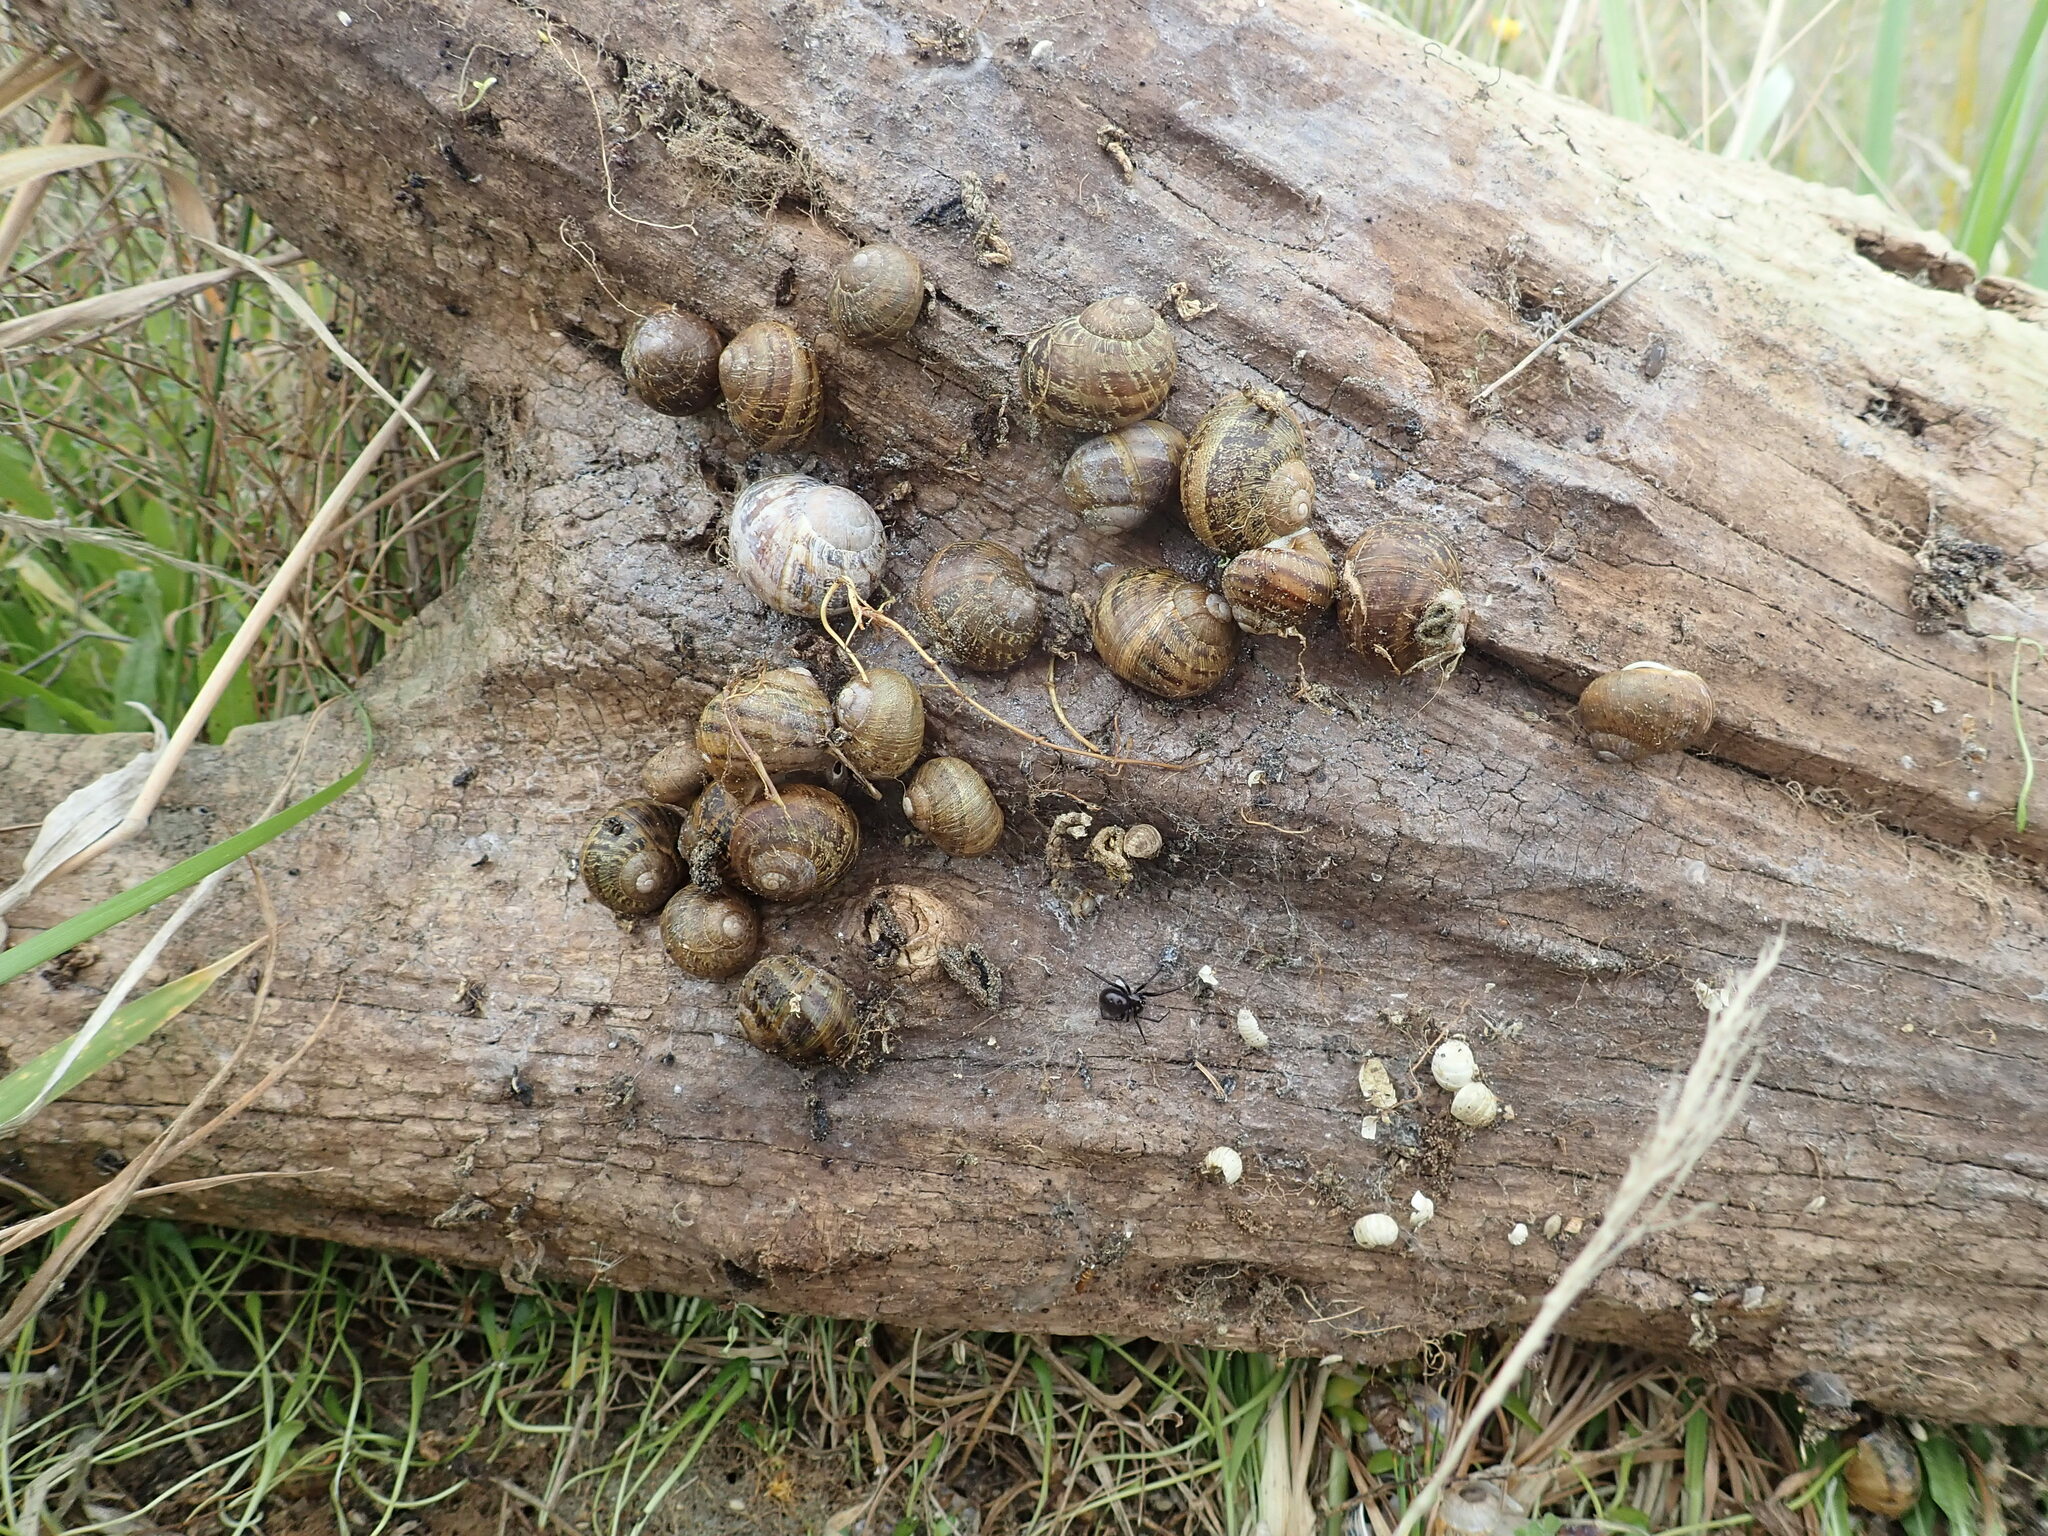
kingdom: Animalia
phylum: Mollusca
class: Gastropoda
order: Stylommatophora
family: Helicidae
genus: Cornu
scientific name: Cornu aspersum
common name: Brown garden snail
